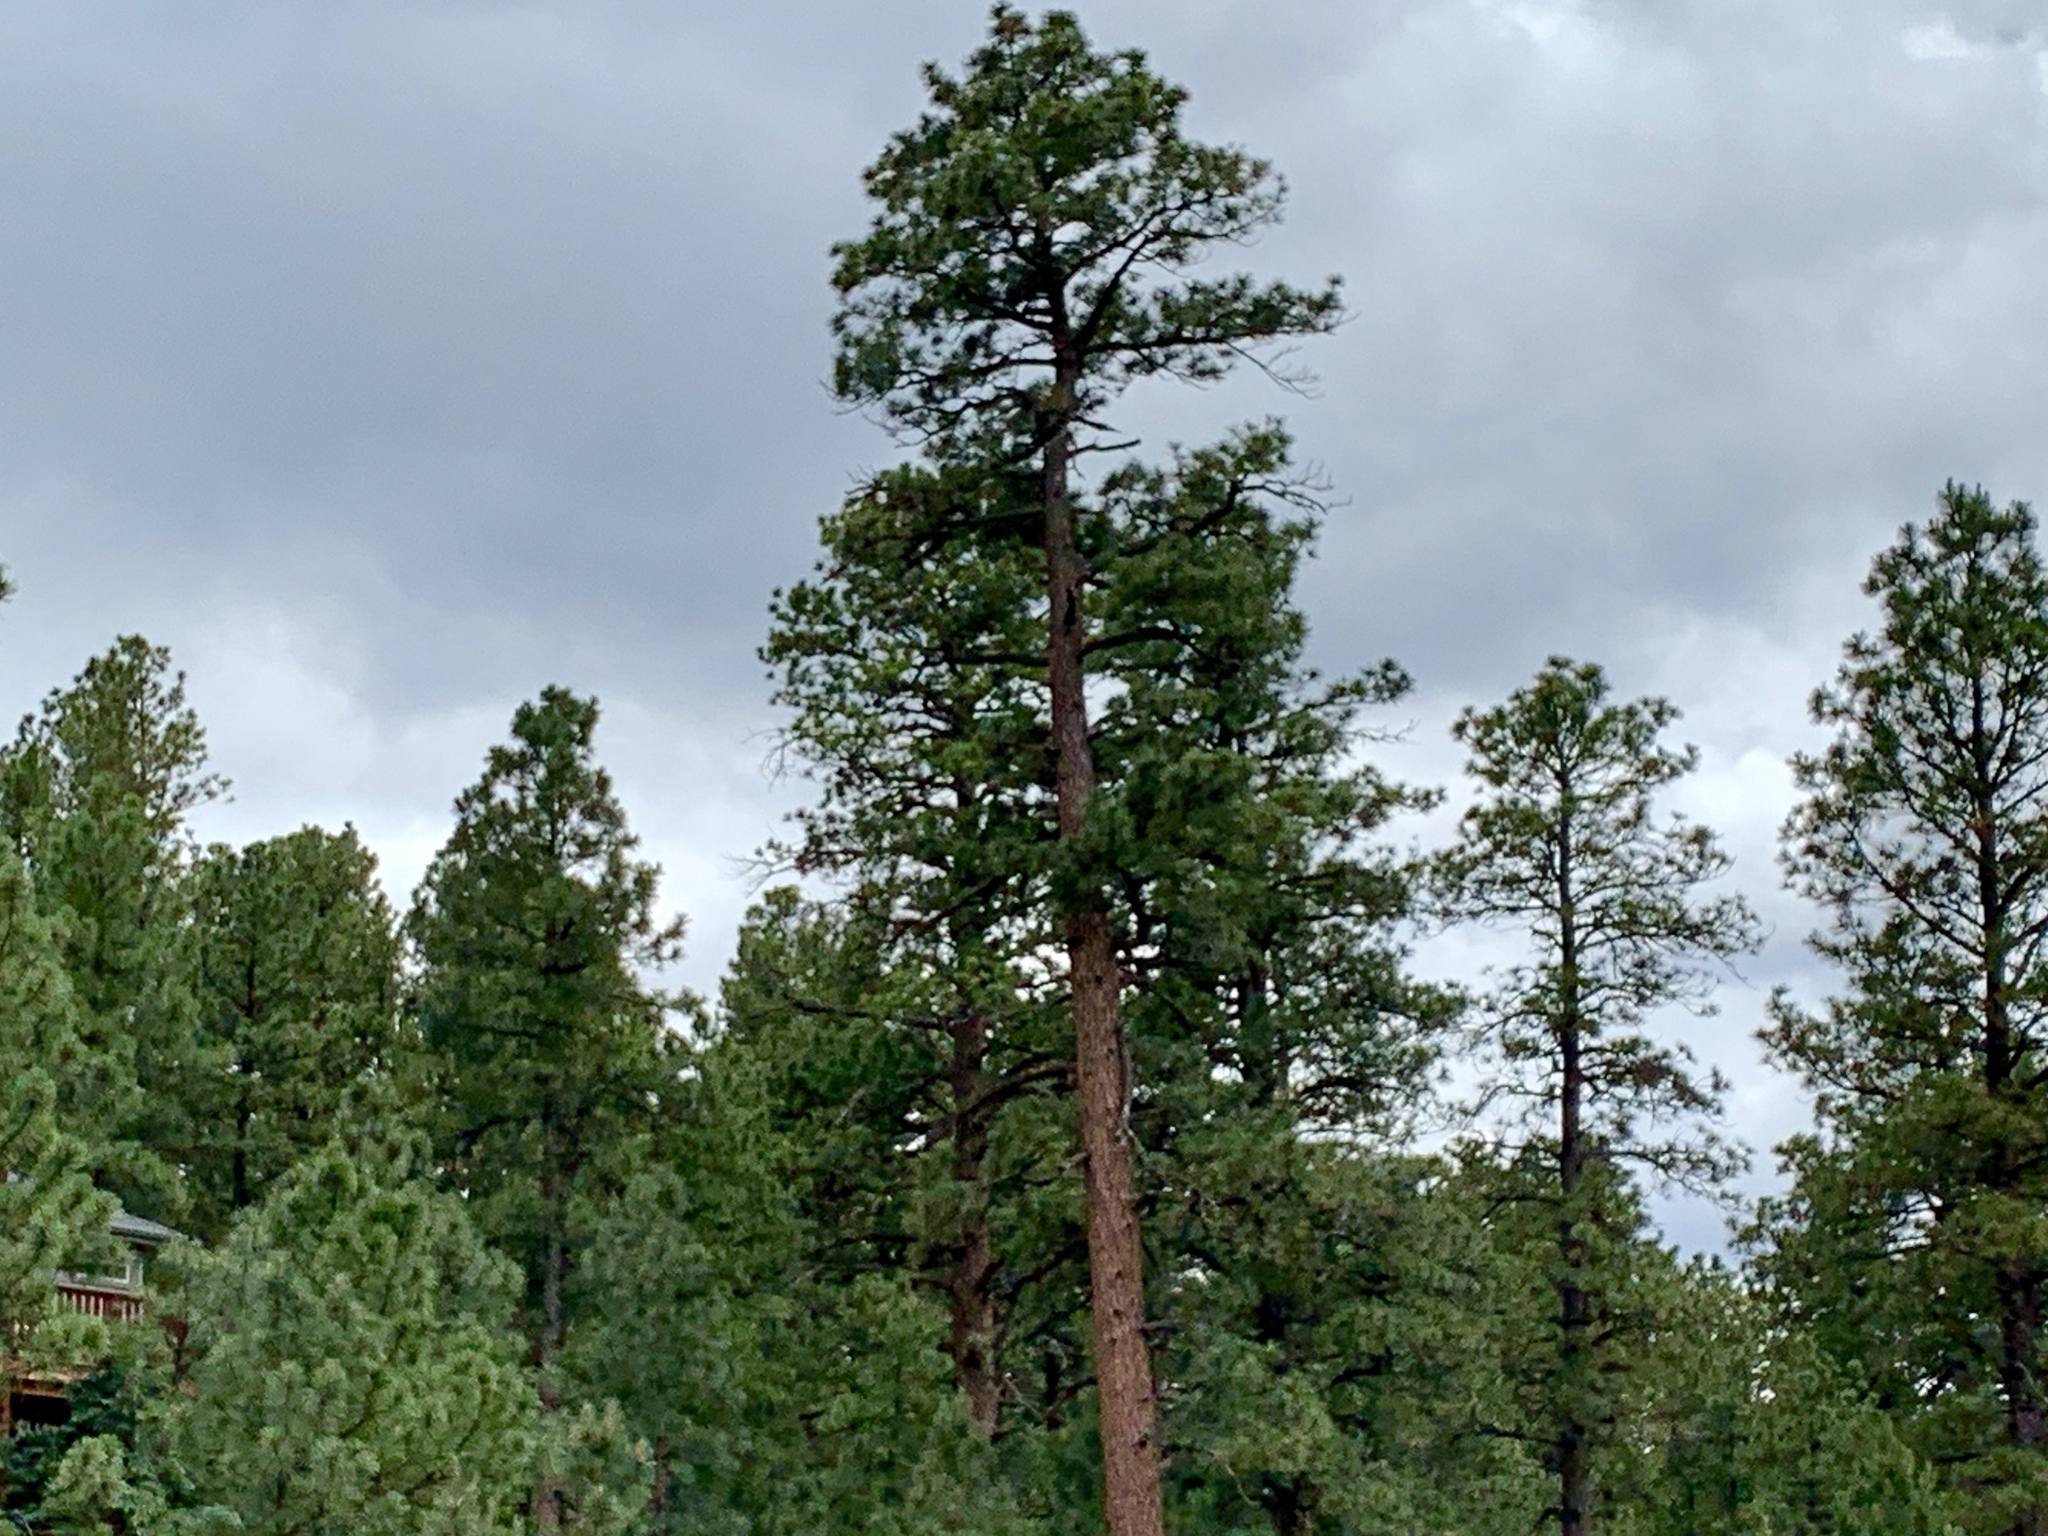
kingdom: Plantae
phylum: Tracheophyta
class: Pinopsida
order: Pinales
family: Pinaceae
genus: Pinus
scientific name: Pinus ponderosa
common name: Western yellow-pine
